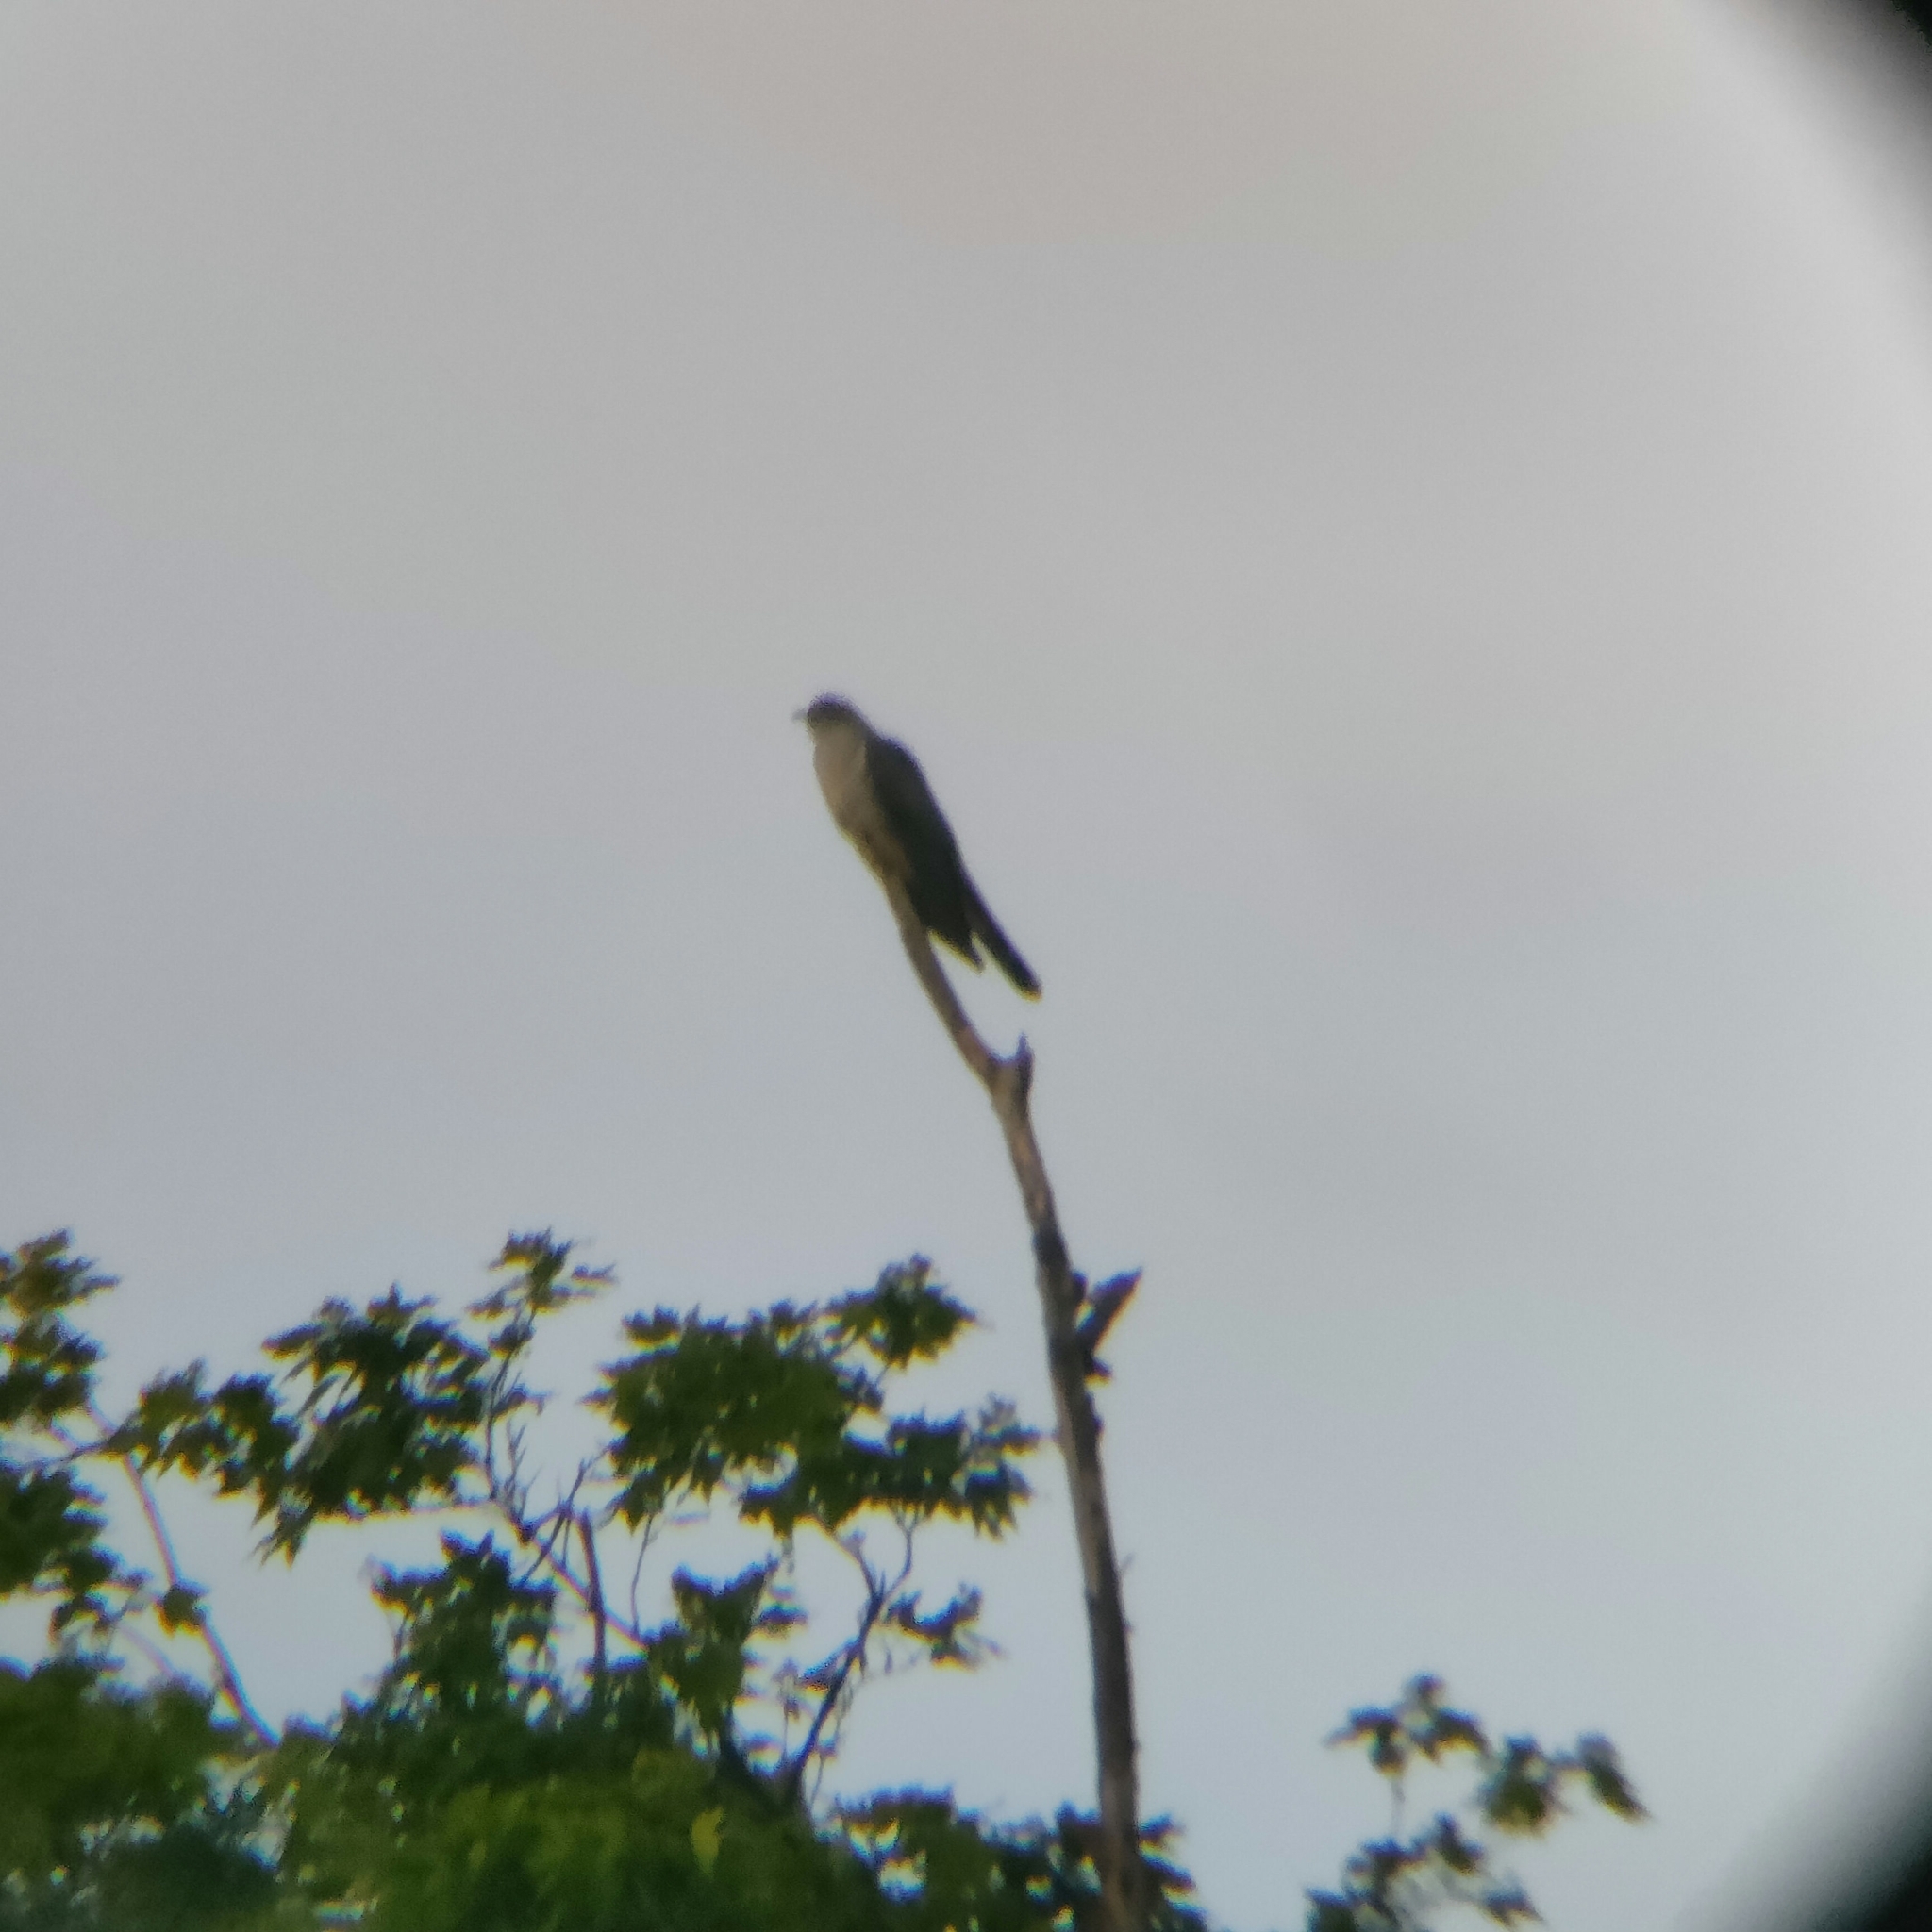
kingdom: Animalia
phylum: Chordata
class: Aves
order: Cuculiformes
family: Cuculidae
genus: Cuculus
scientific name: Cuculus canorus
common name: Common cuckoo
